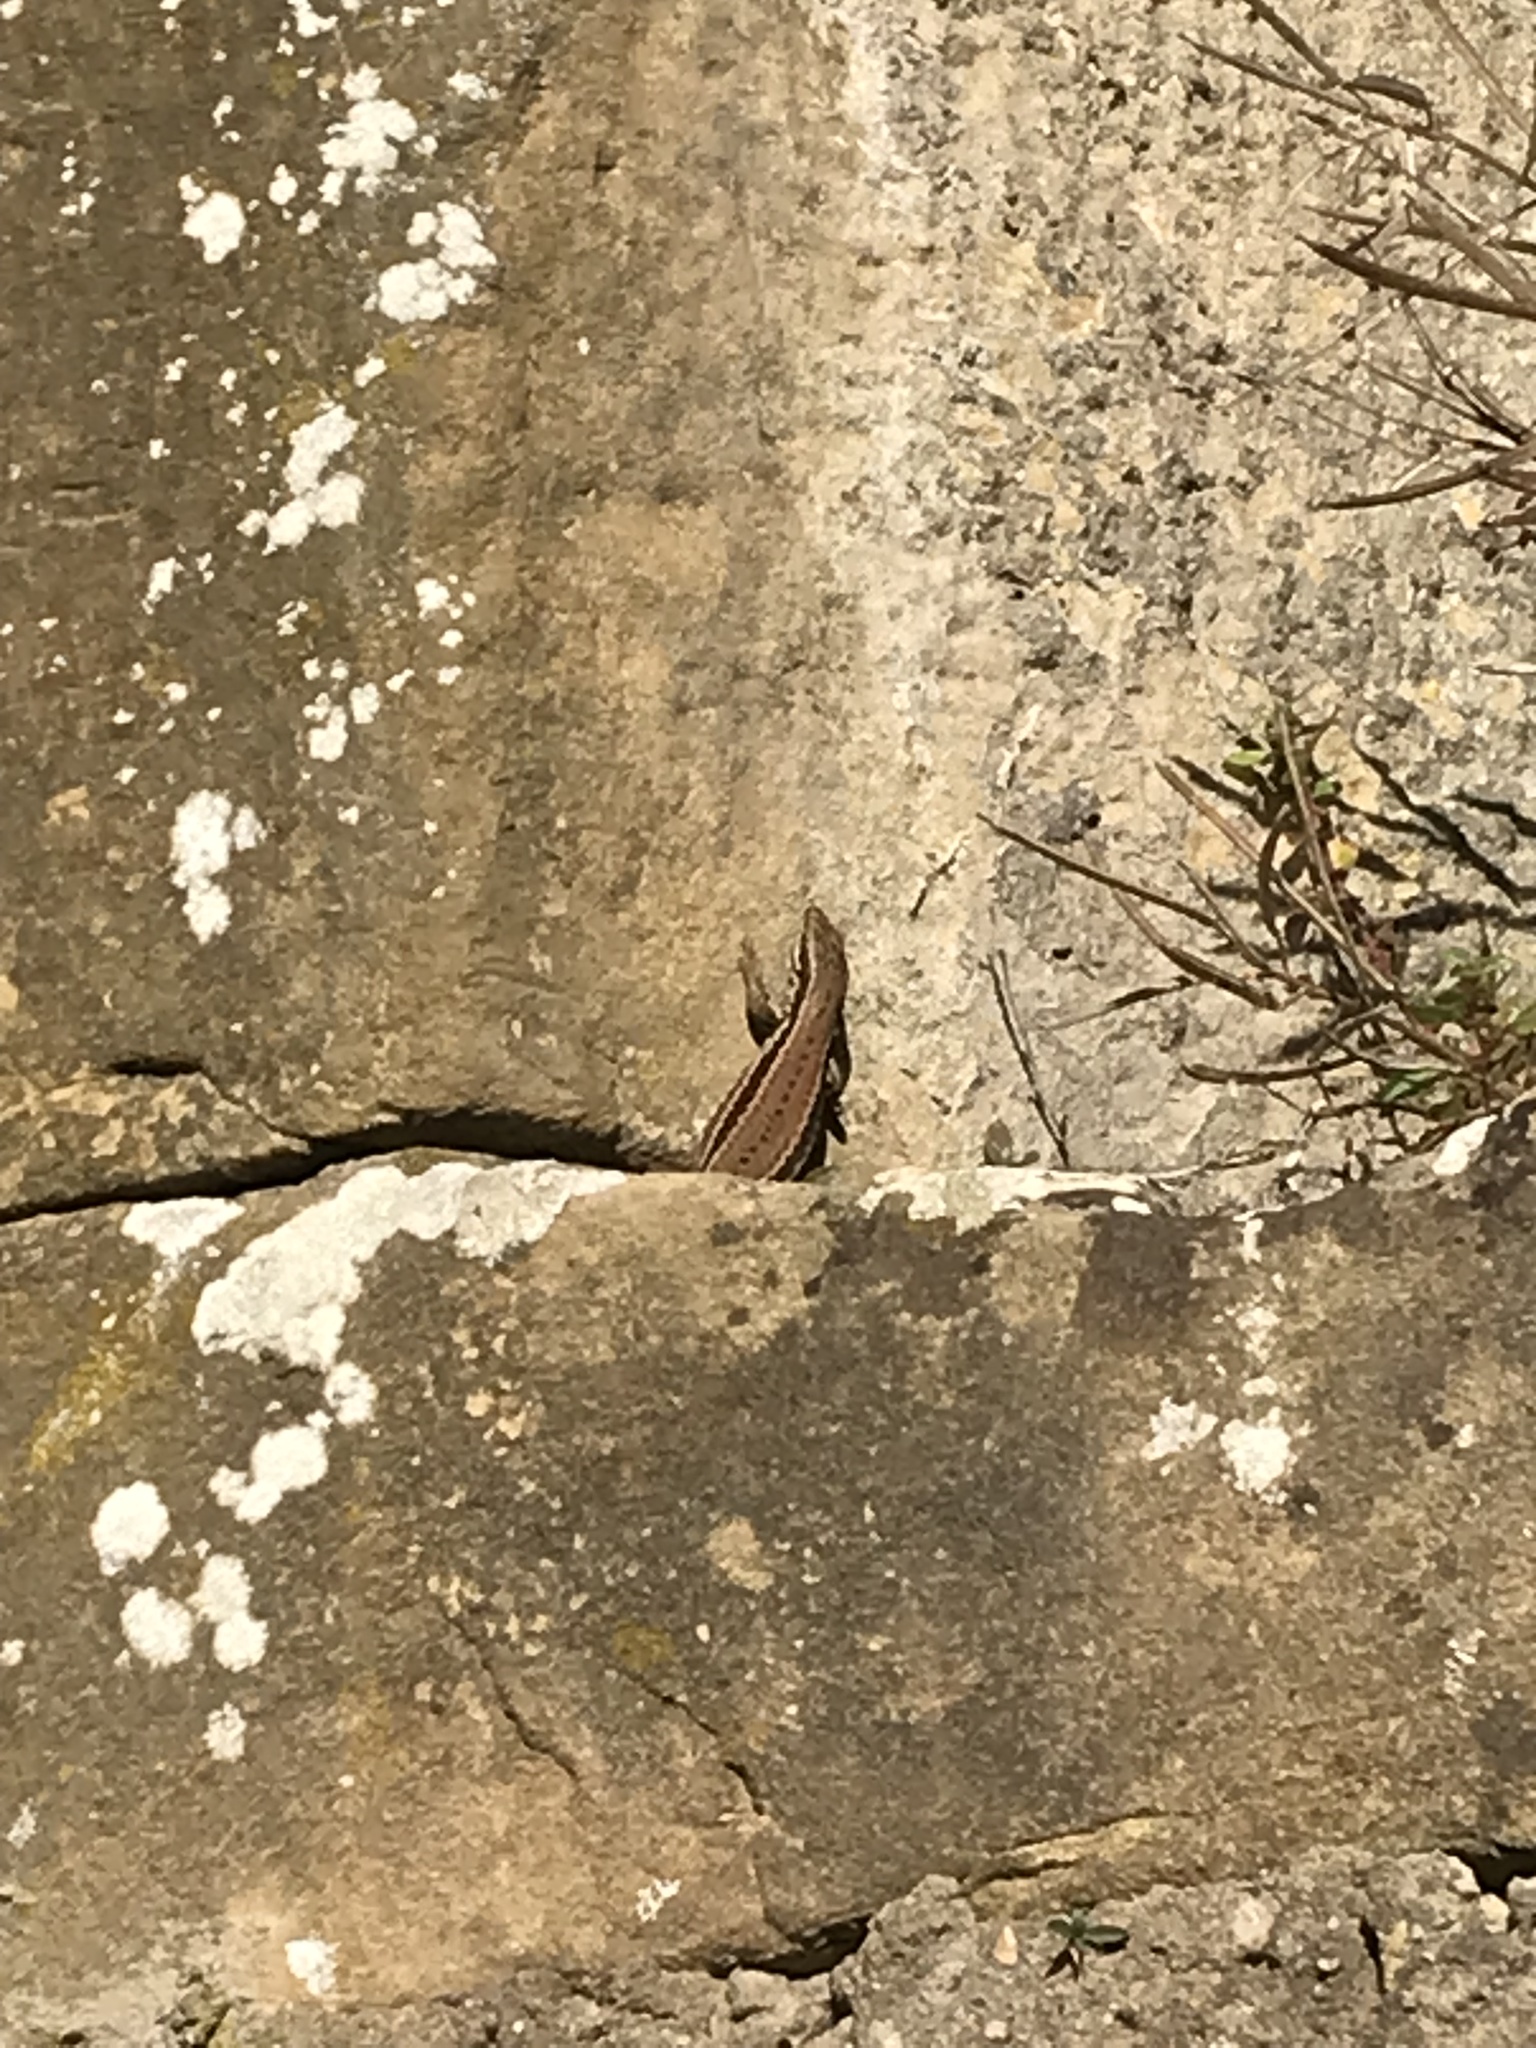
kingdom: Animalia
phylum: Chordata
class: Squamata
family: Lacertidae
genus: Podarcis
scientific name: Podarcis muralis
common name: Common wall lizard
